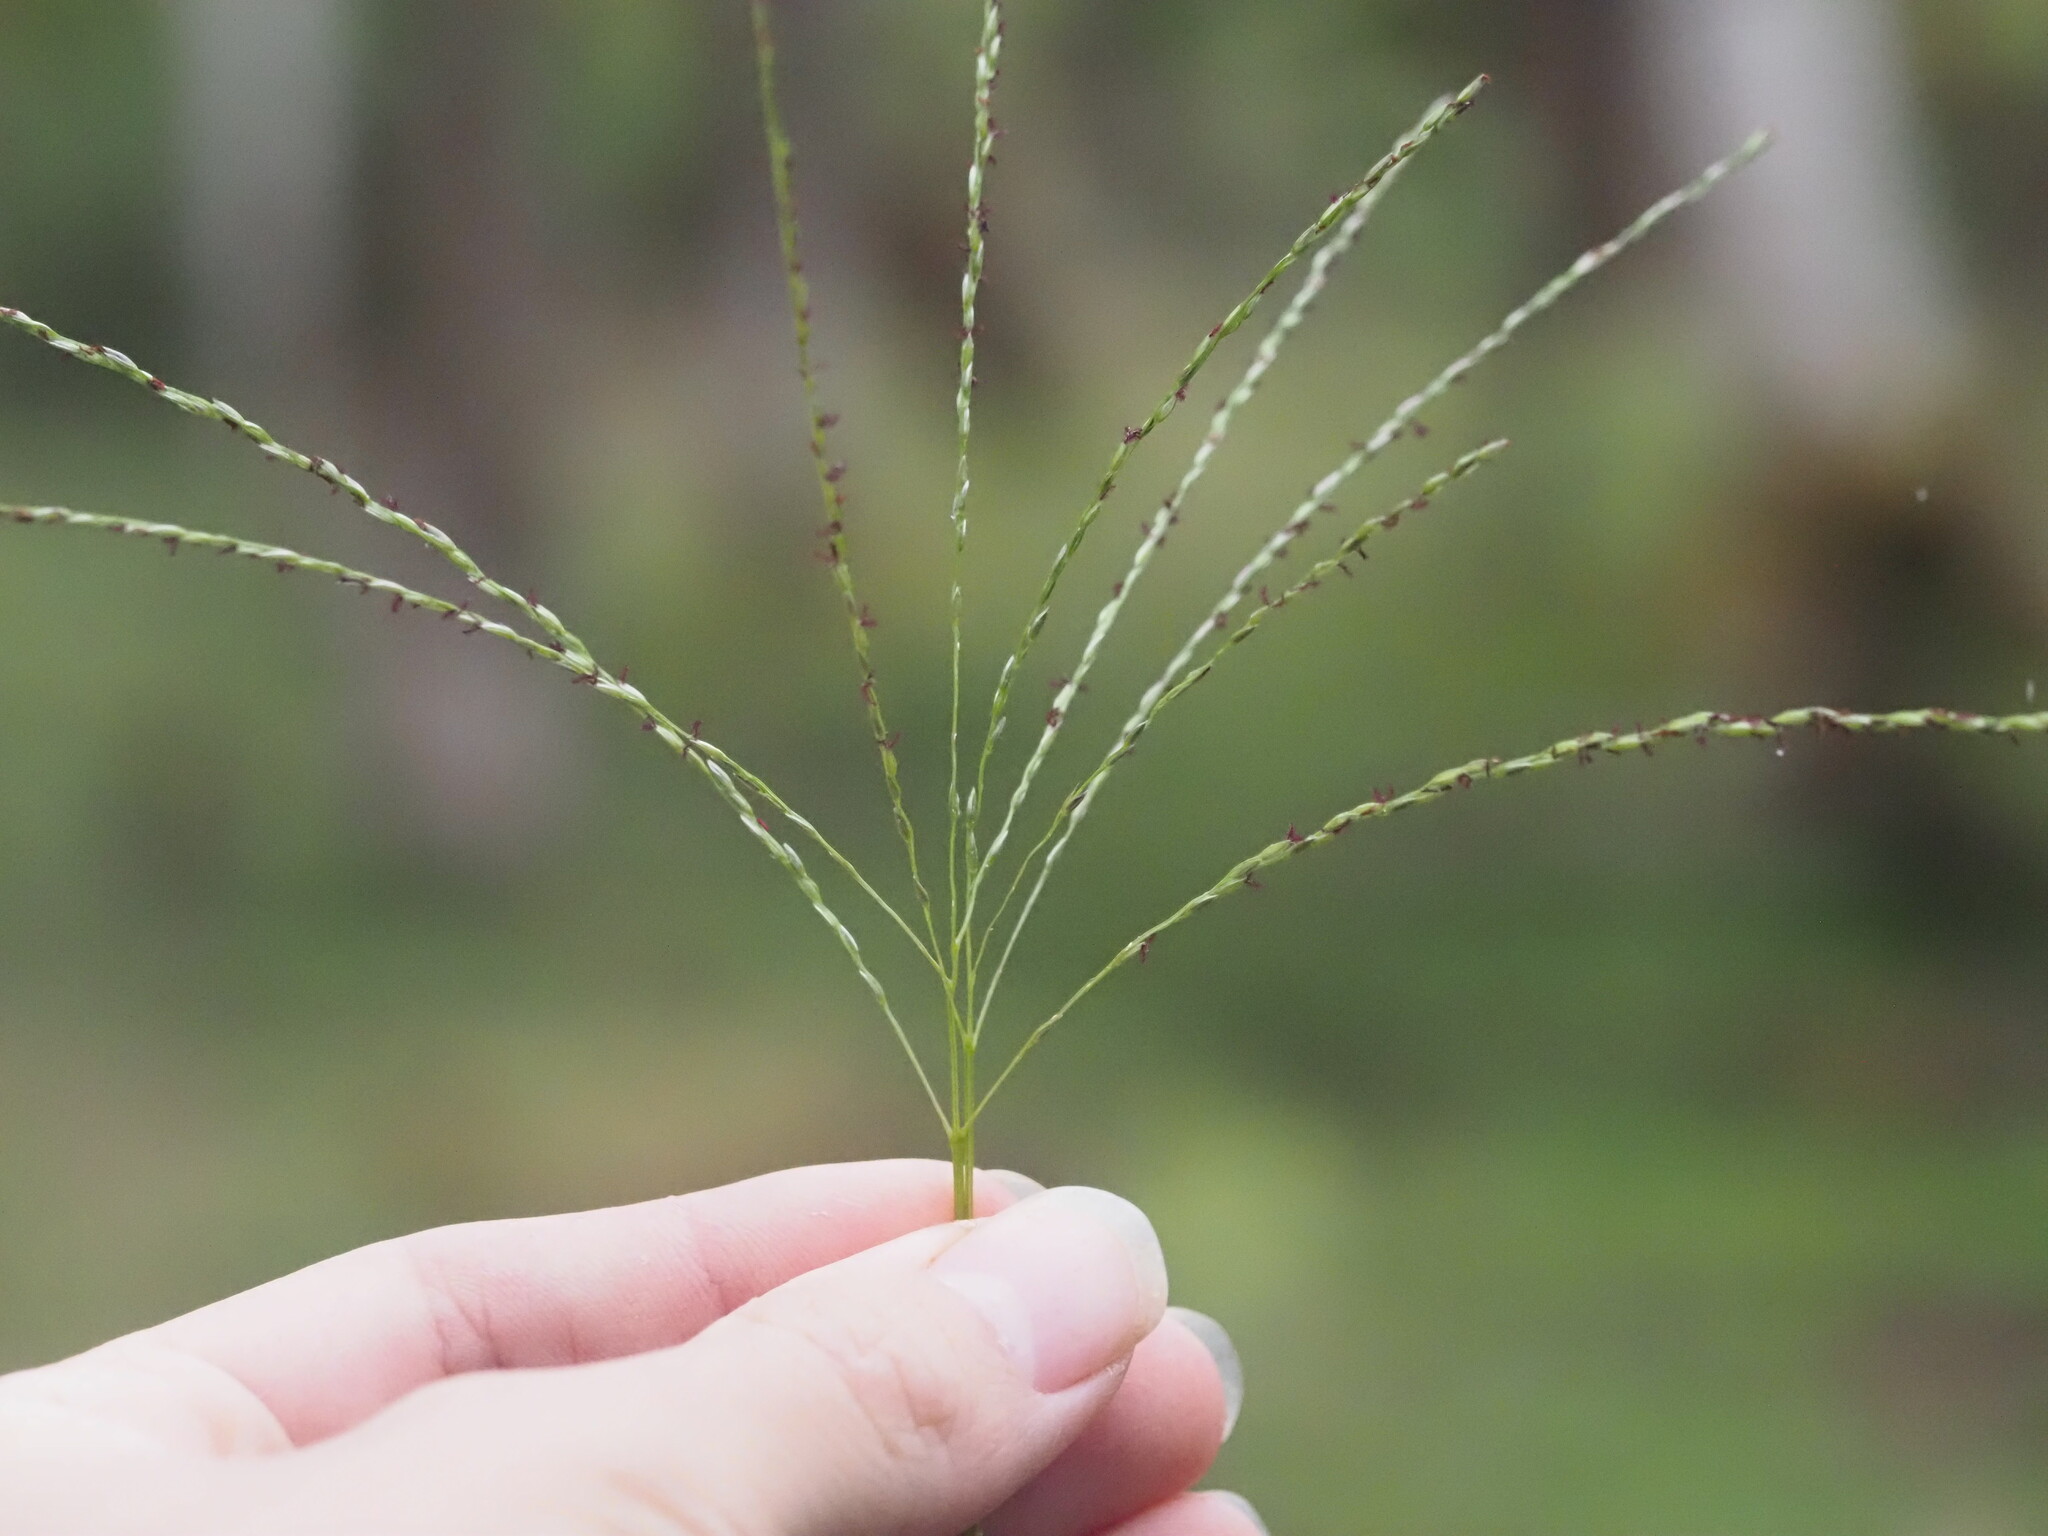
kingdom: Plantae
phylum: Tracheophyta
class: Liliopsida
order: Poales
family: Poaceae
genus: Digitaria
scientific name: Digitaria eriostachya
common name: Crabgrass
